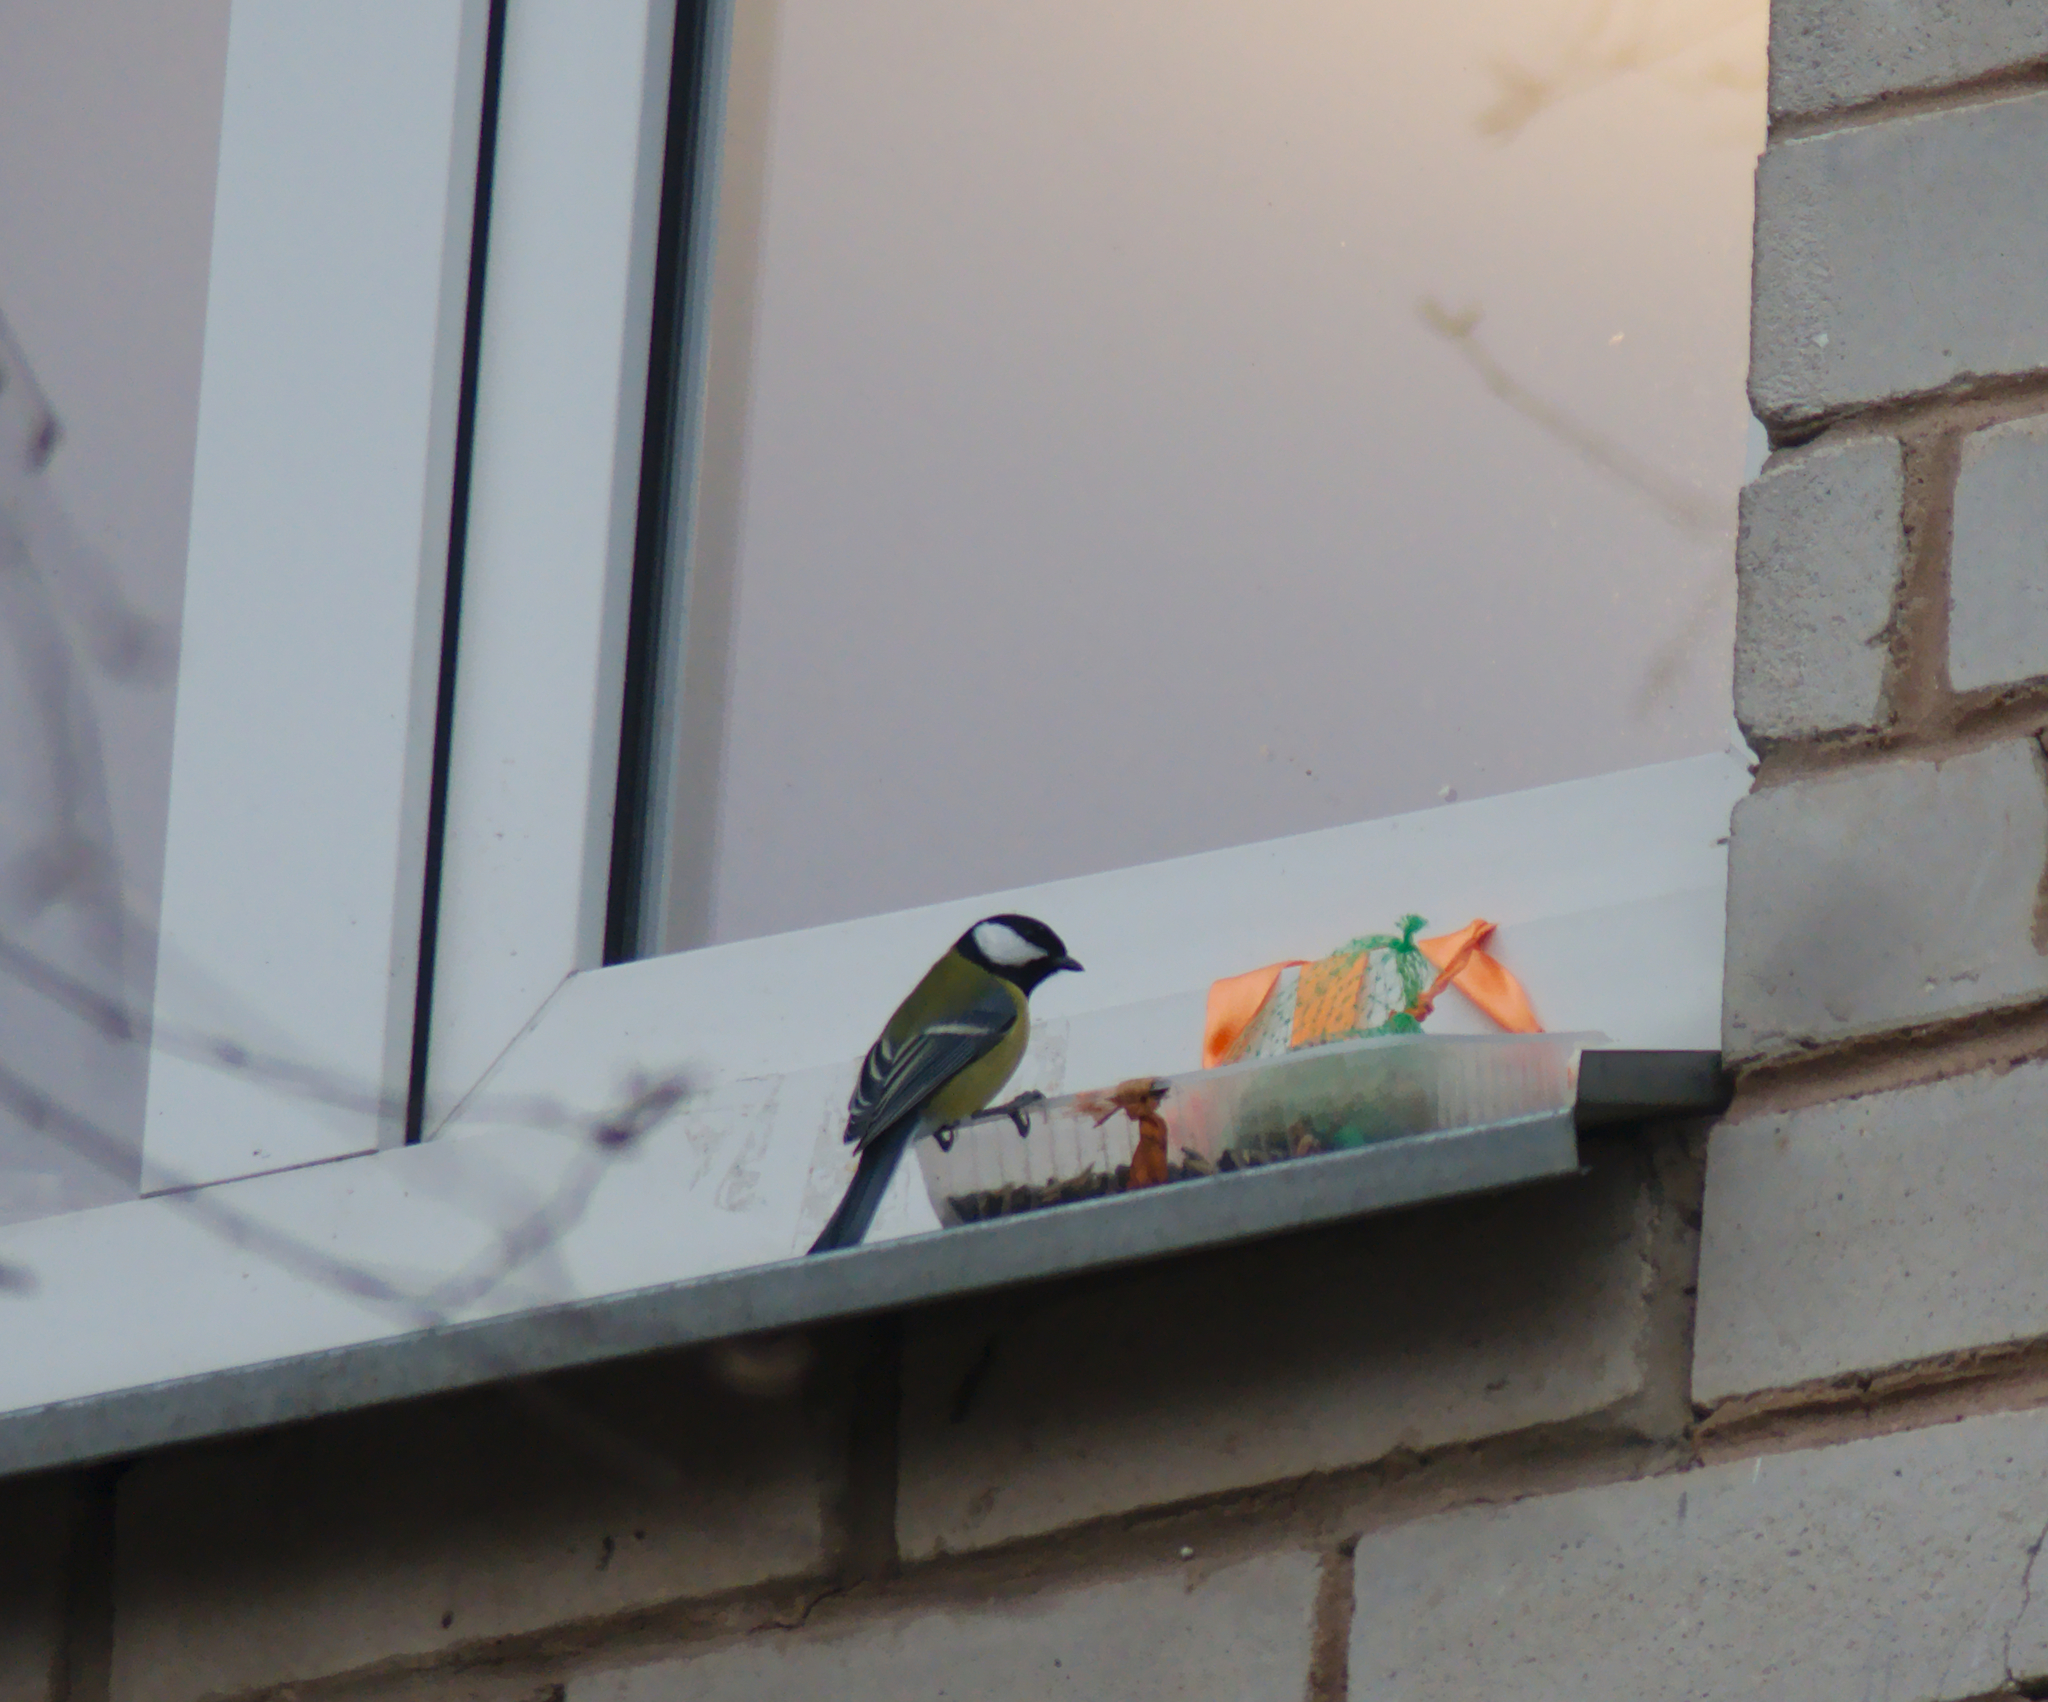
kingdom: Animalia
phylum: Chordata
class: Aves
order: Passeriformes
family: Paridae
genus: Parus
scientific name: Parus major
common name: Great tit
